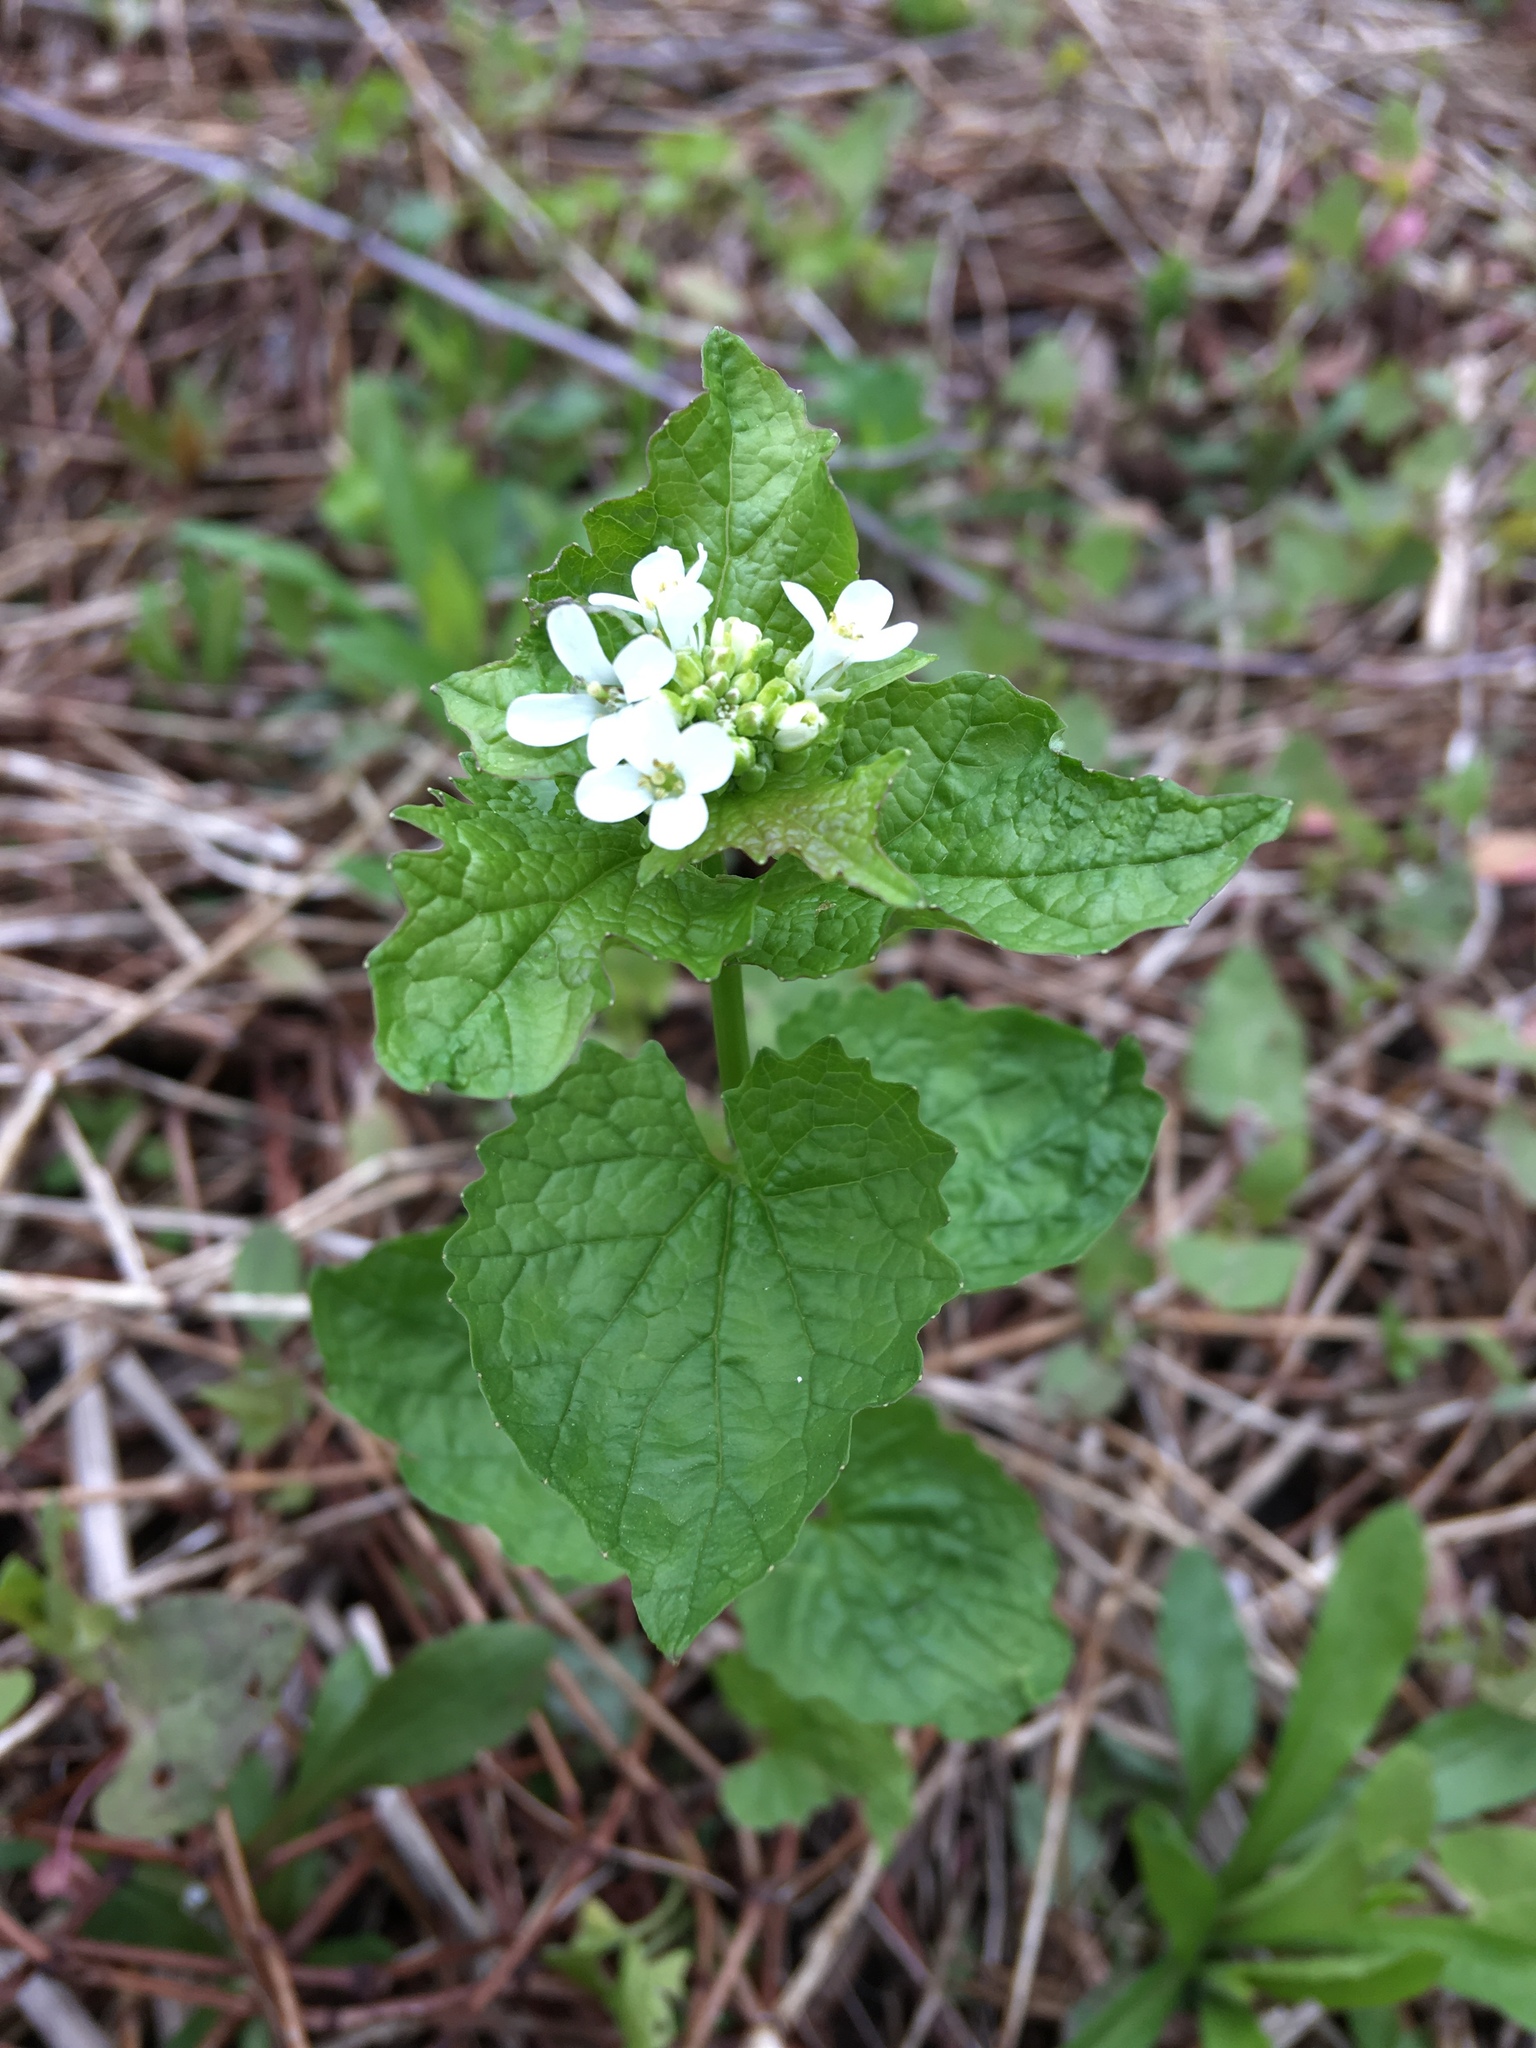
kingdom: Plantae
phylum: Tracheophyta
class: Magnoliopsida
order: Brassicales
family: Brassicaceae
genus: Alliaria
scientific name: Alliaria petiolata
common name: Garlic mustard
